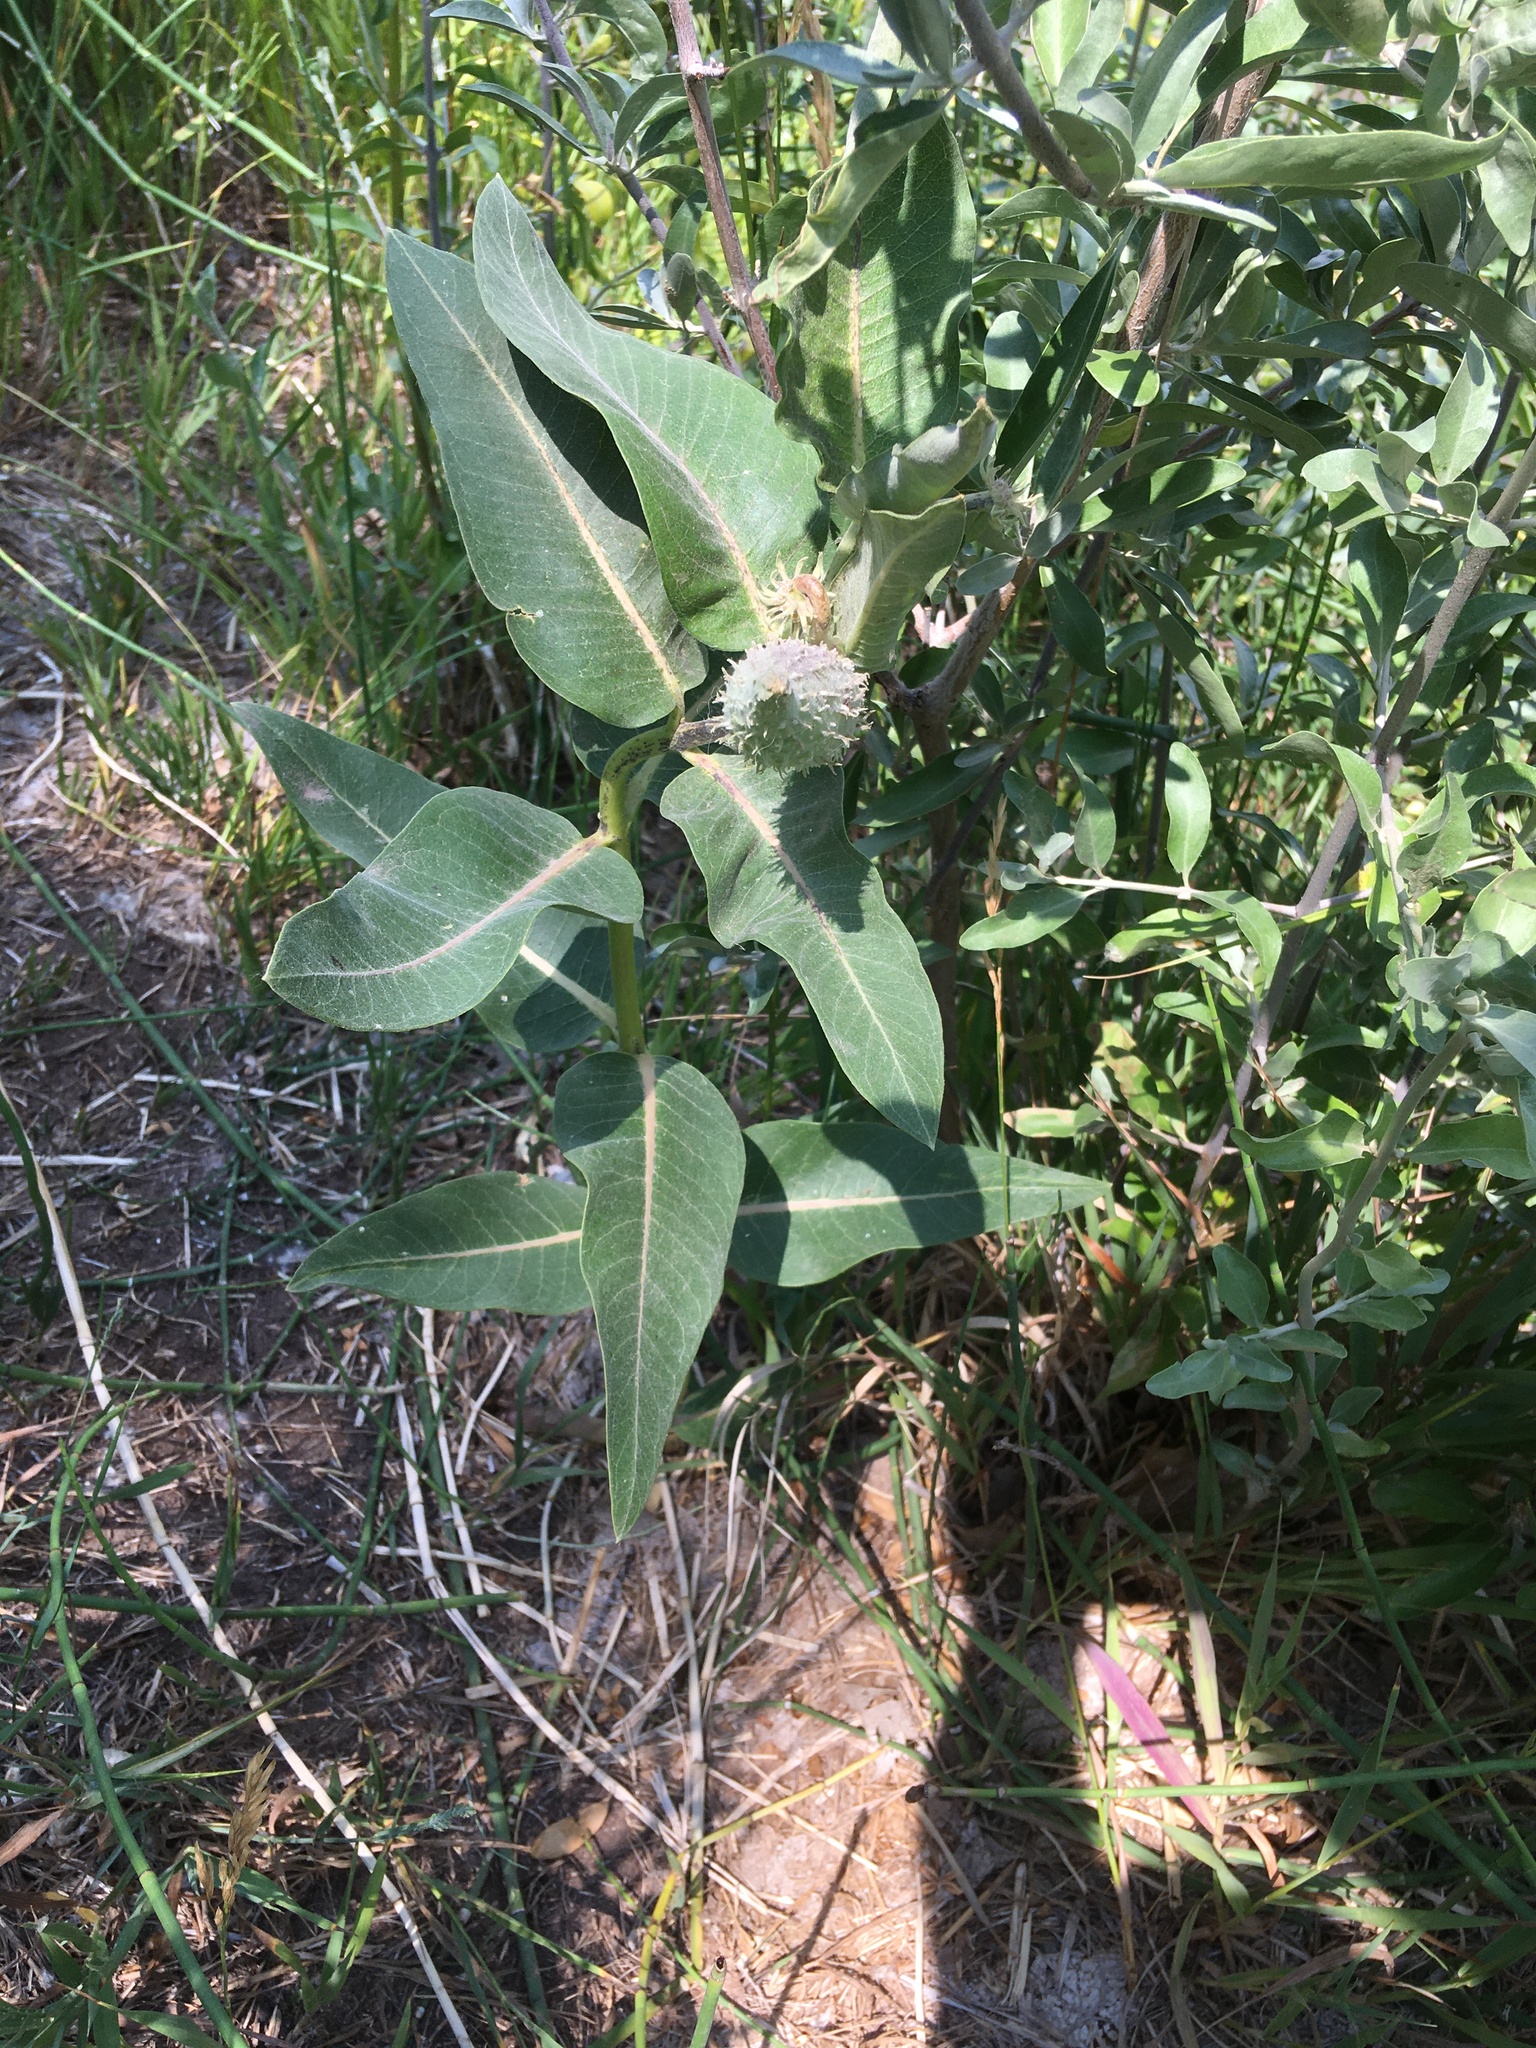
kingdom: Plantae
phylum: Tracheophyta
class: Magnoliopsida
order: Gentianales
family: Apocynaceae
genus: Asclepias
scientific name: Asclepias speciosa
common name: Showy milkweed
